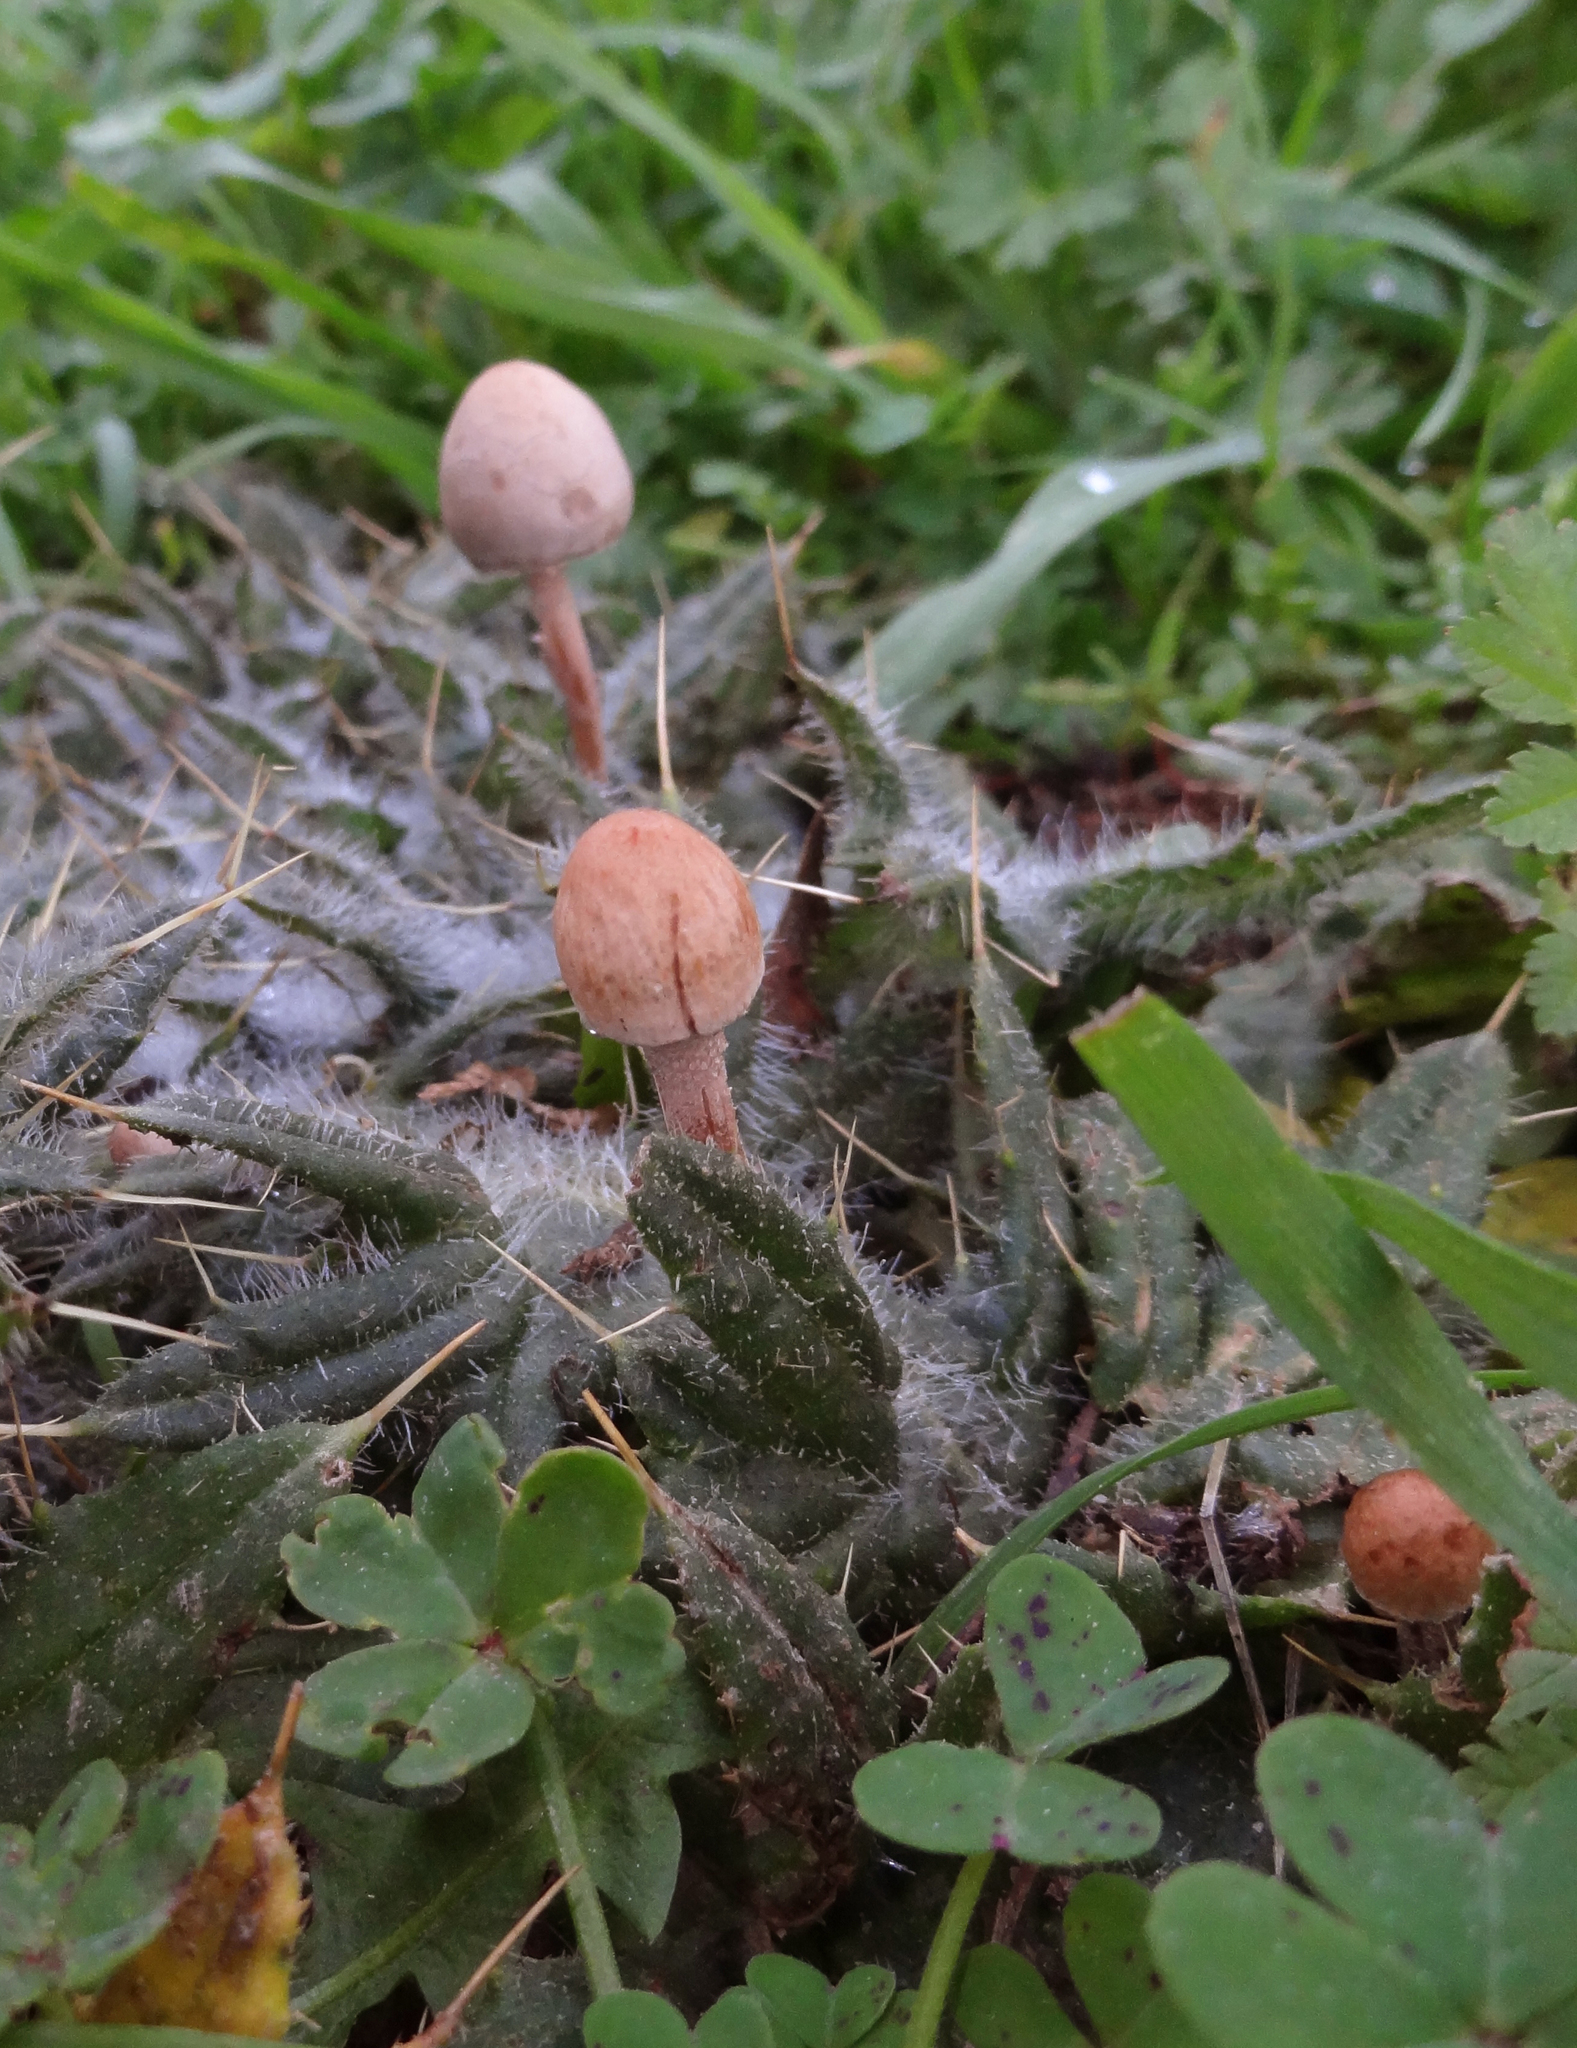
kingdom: Fungi
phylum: Basidiomycota
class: Agaricomycetes
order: Agaricales
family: Bolbitiaceae
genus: Panaeolus
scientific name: Panaeolus papilionaceus
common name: Petticoat mottlegill
